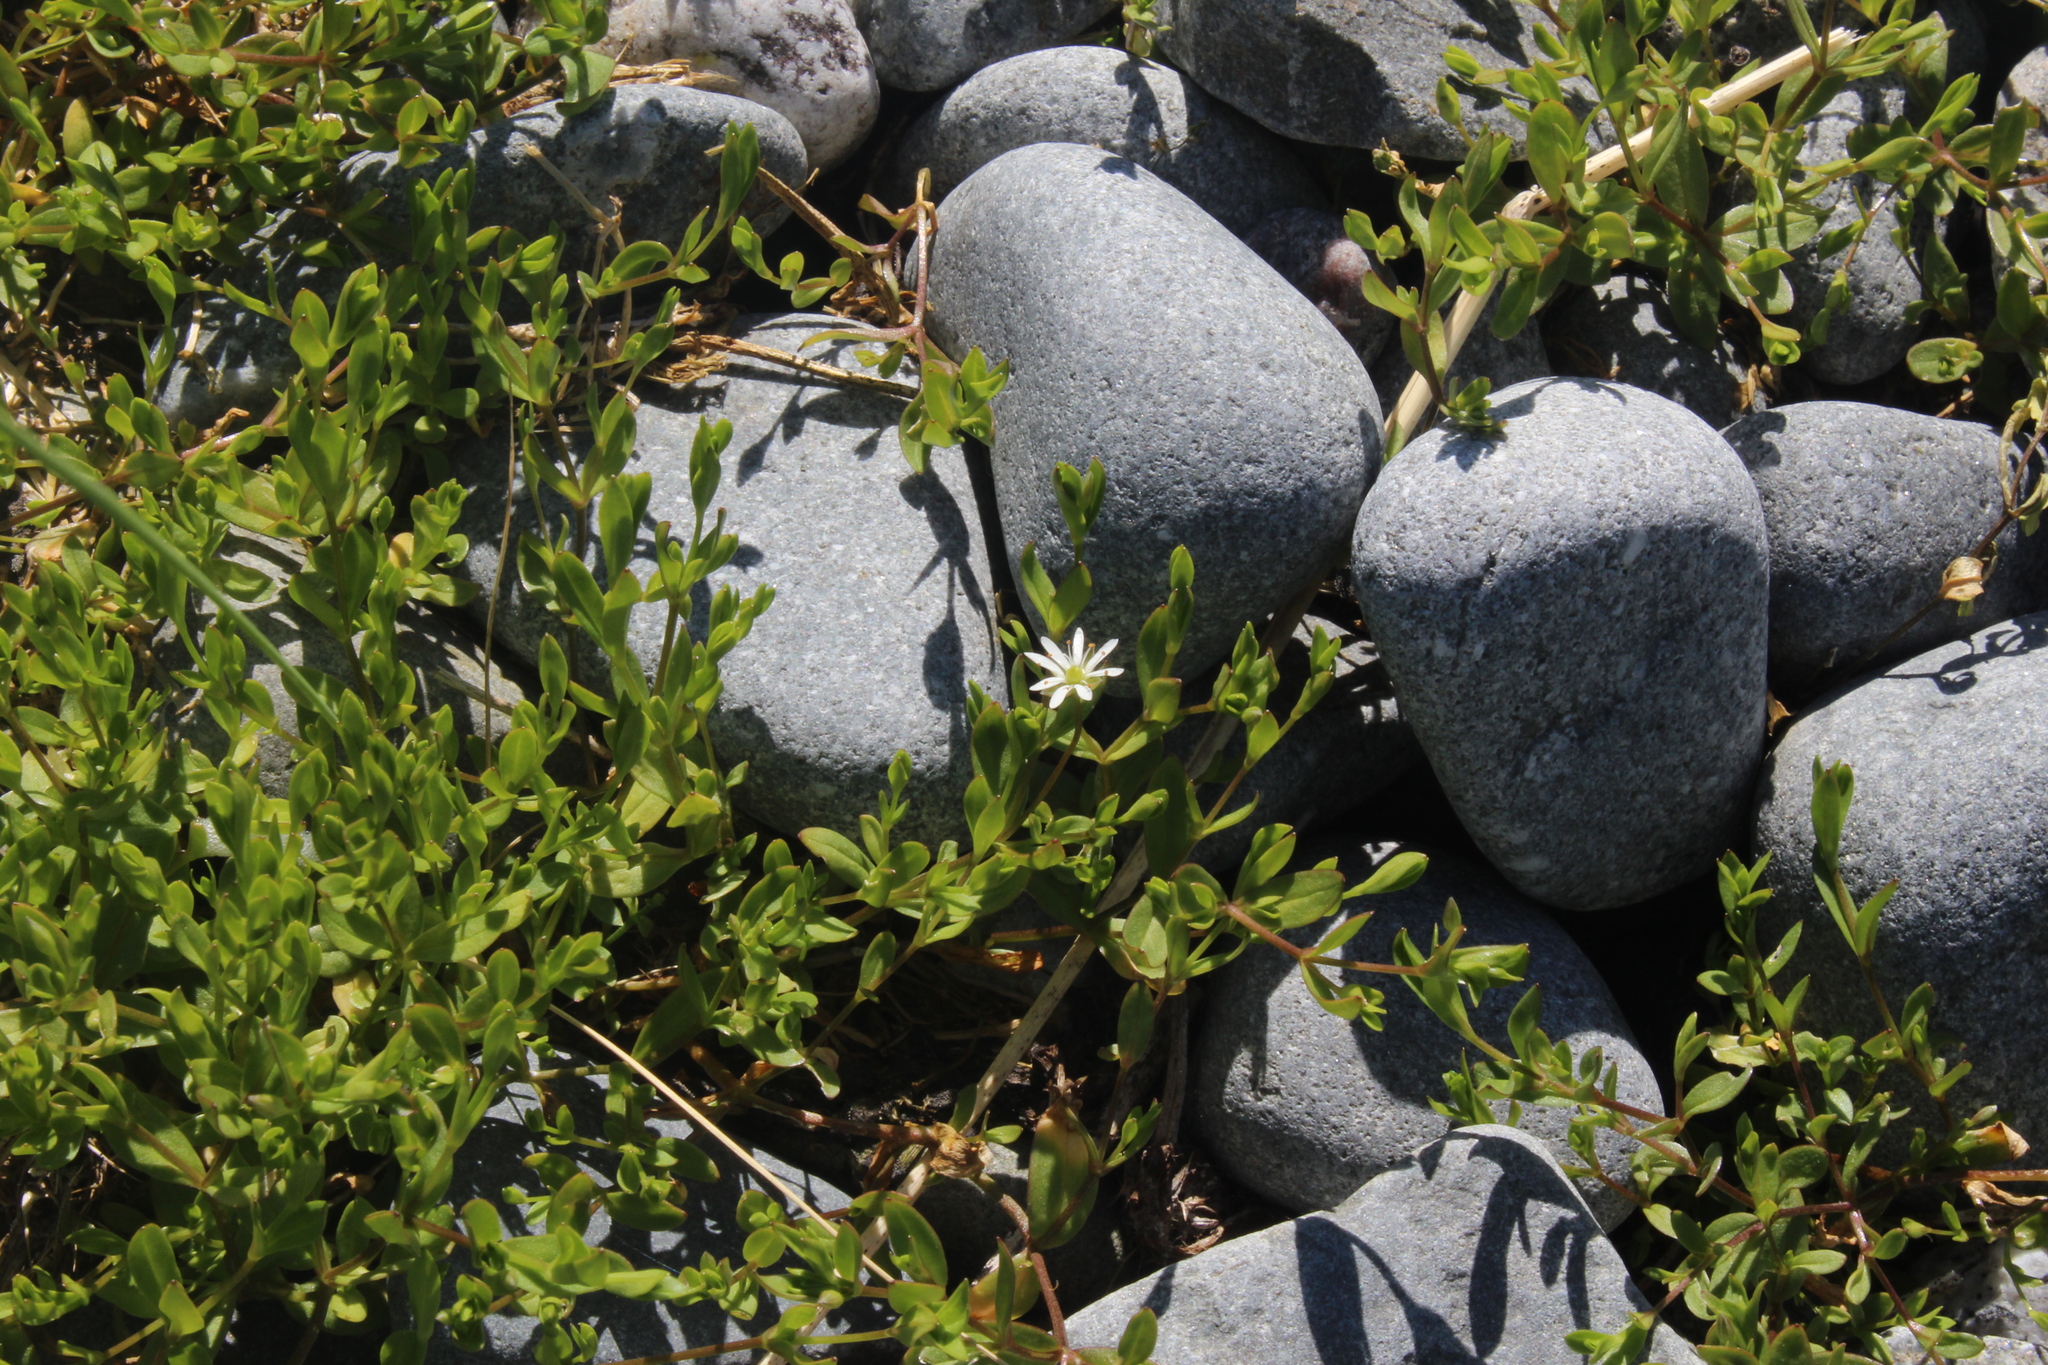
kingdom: Plantae
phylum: Tracheophyta
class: Magnoliopsida
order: Caryophyllales
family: Caryophyllaceae
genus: Stellaria
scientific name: Stellaria humifusa
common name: Creeping starwort
